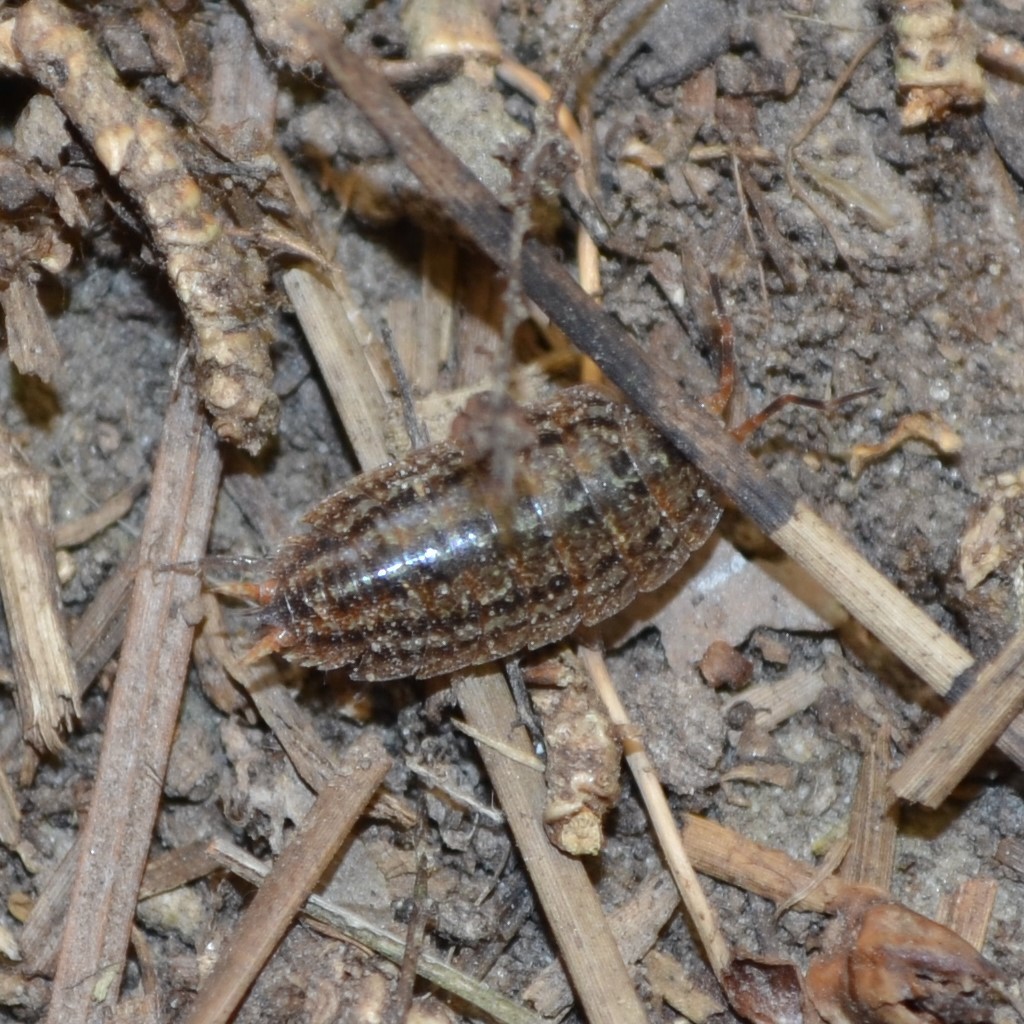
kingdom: Animalia
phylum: Arthropoda
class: Malacostraca
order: Isopoda
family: Porcellionidae
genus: Porcellionides
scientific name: Porcellionides virgatus
